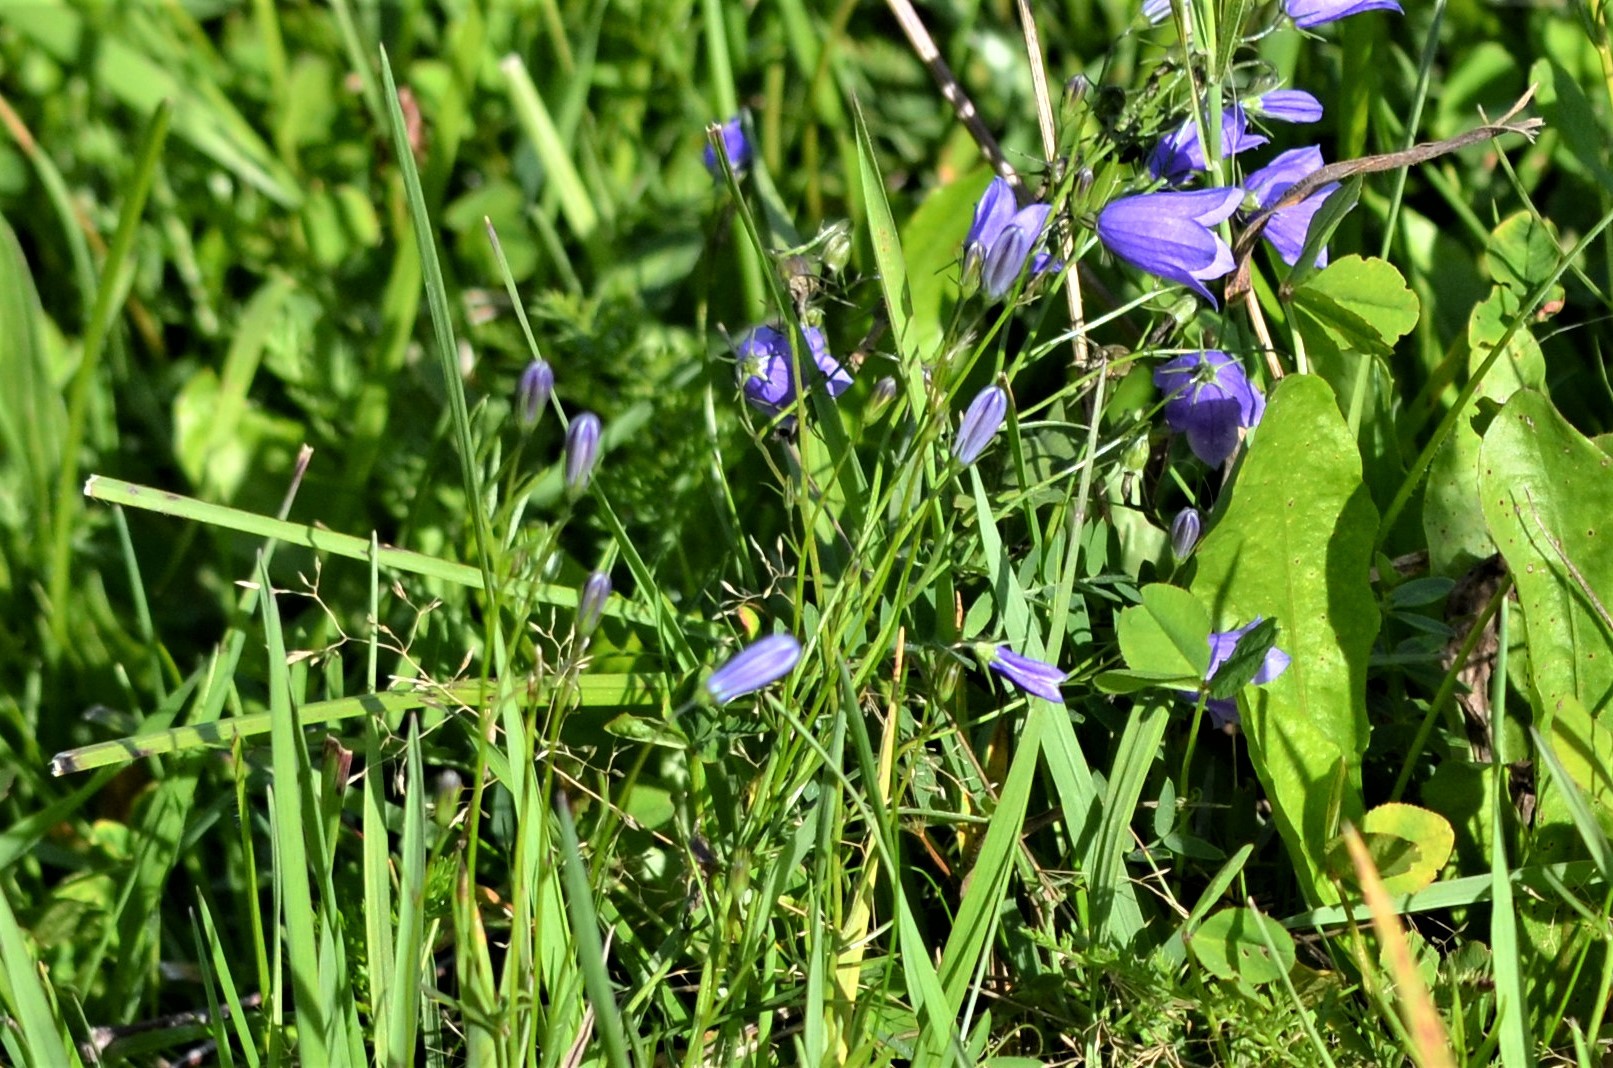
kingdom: Plantae
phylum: Tracheophyta
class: Magnoliopsida
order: Asterales
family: Campanulaceae
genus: Campanula
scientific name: Campanula rotundifolia
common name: Harebell
